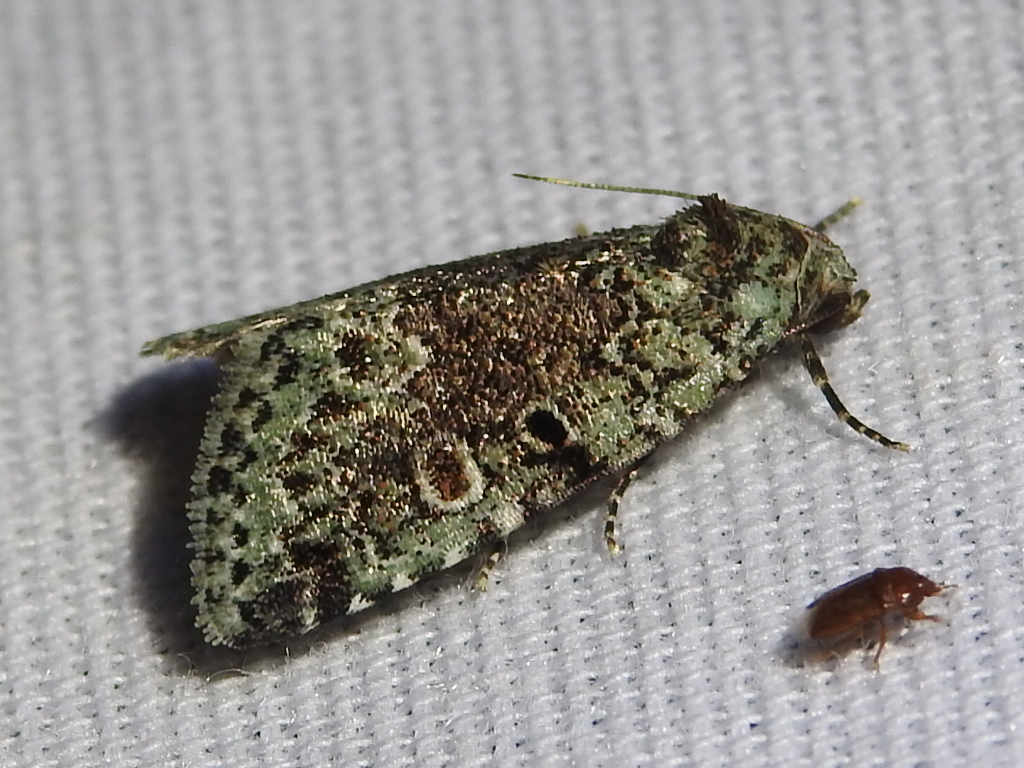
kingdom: Animalia
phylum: Arthropoda
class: Insecta
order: Lepidoptera
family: Noctuidae
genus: Maliattha
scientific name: Maliattha concinnimacula
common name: Red-spotted glyph
